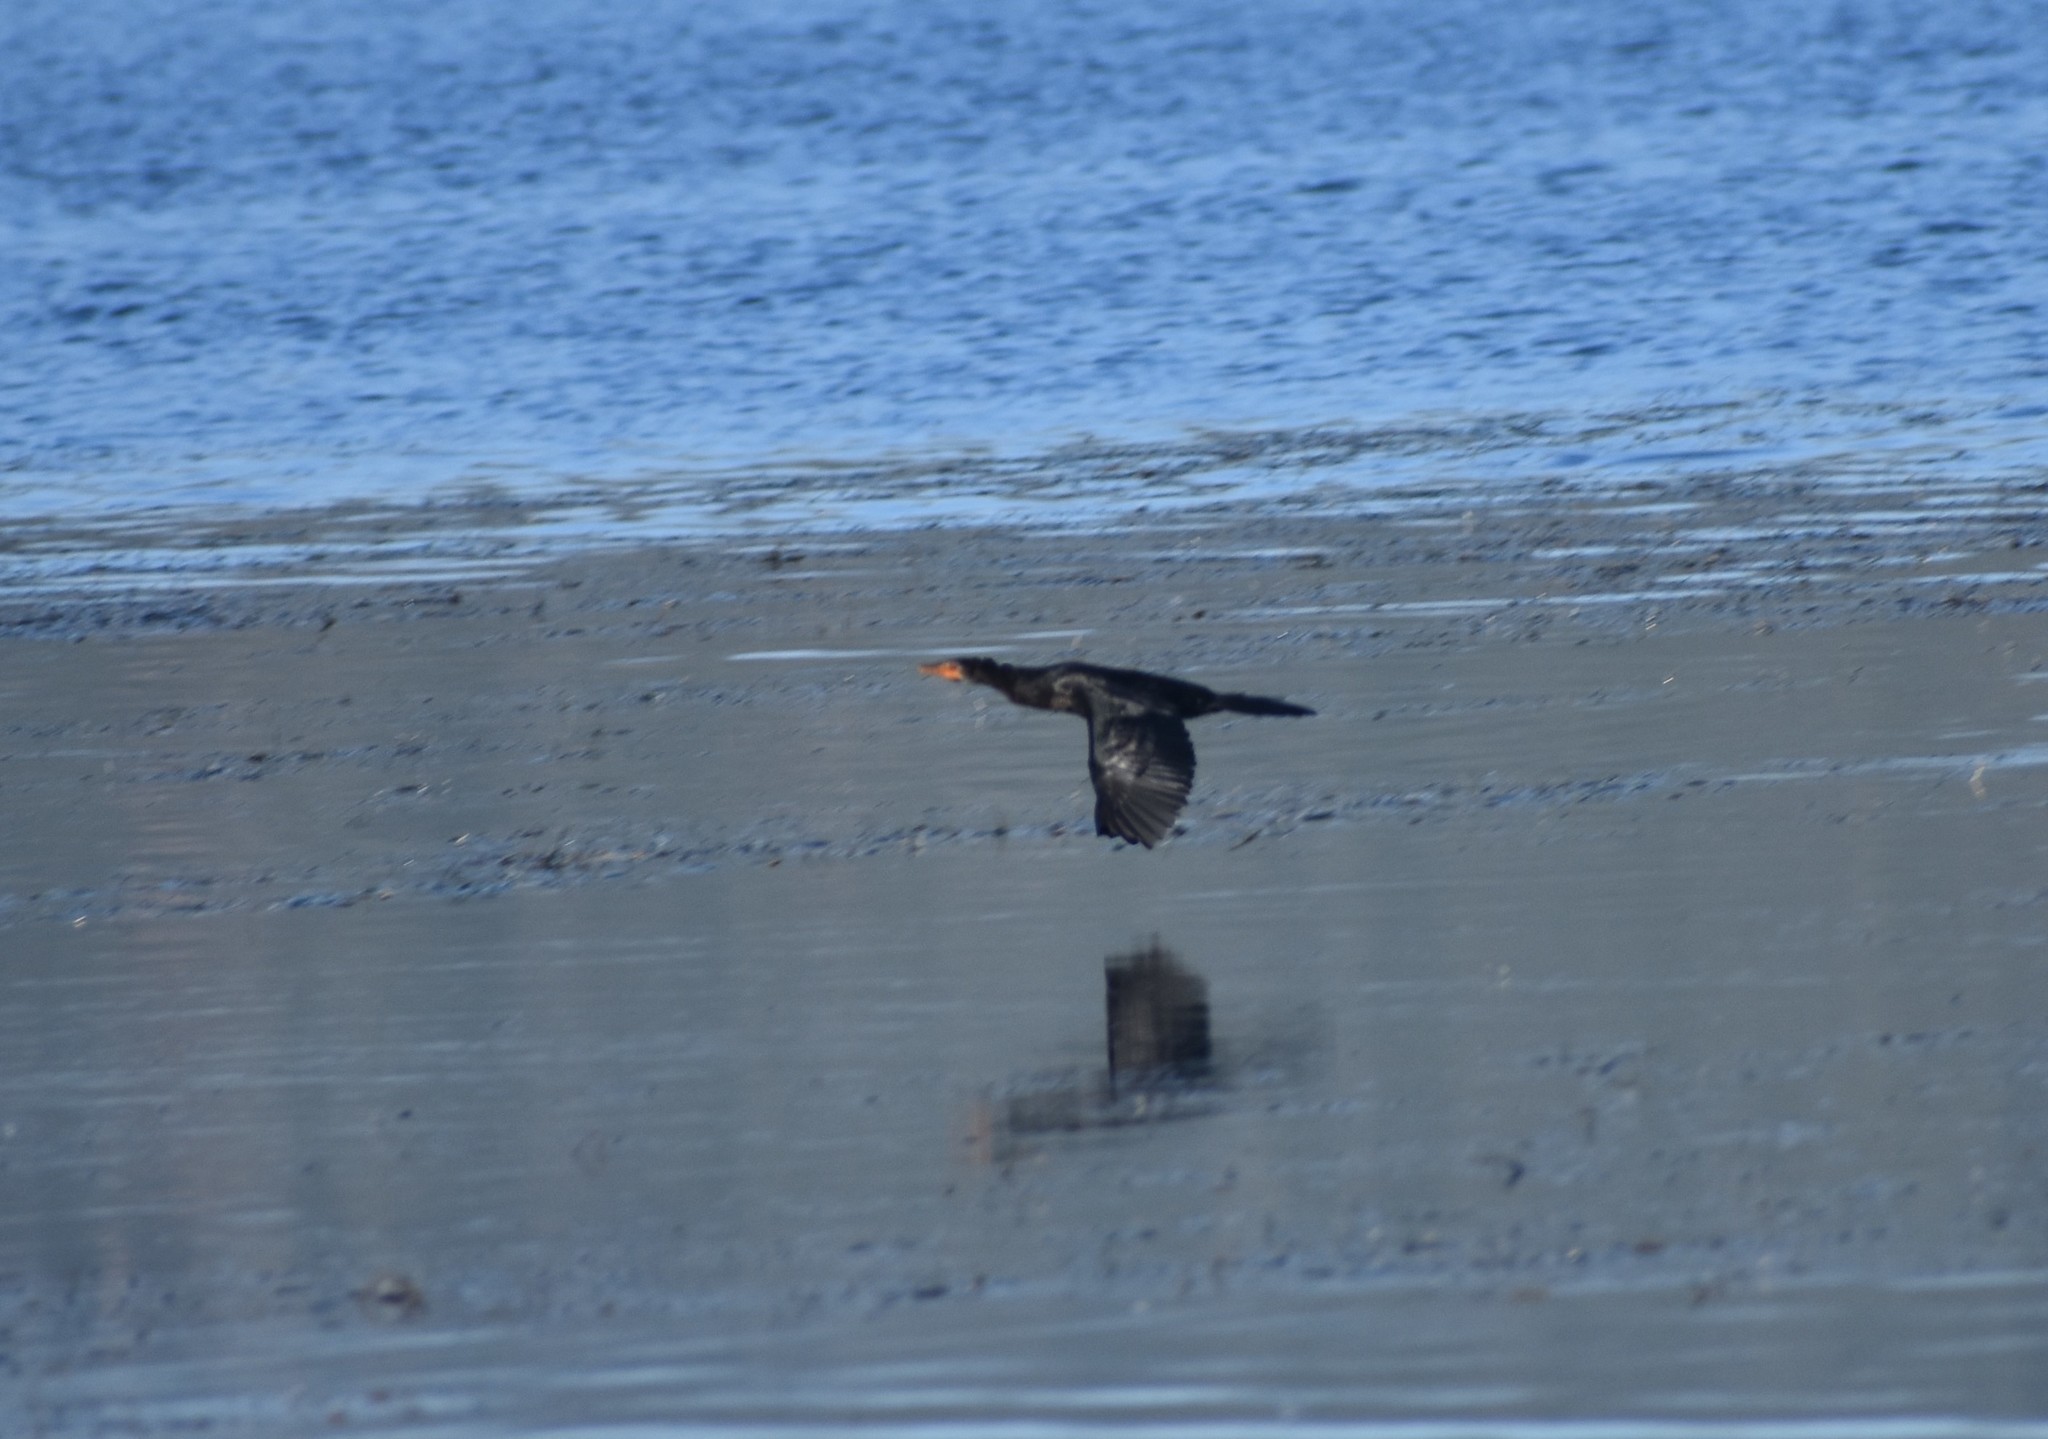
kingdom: Animalia
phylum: Chordata
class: Aves
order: Suliformes
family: Phalacrocoracidae
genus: Microcarbo
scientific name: Microcarbo africanus
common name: Long-tailed cormorant
